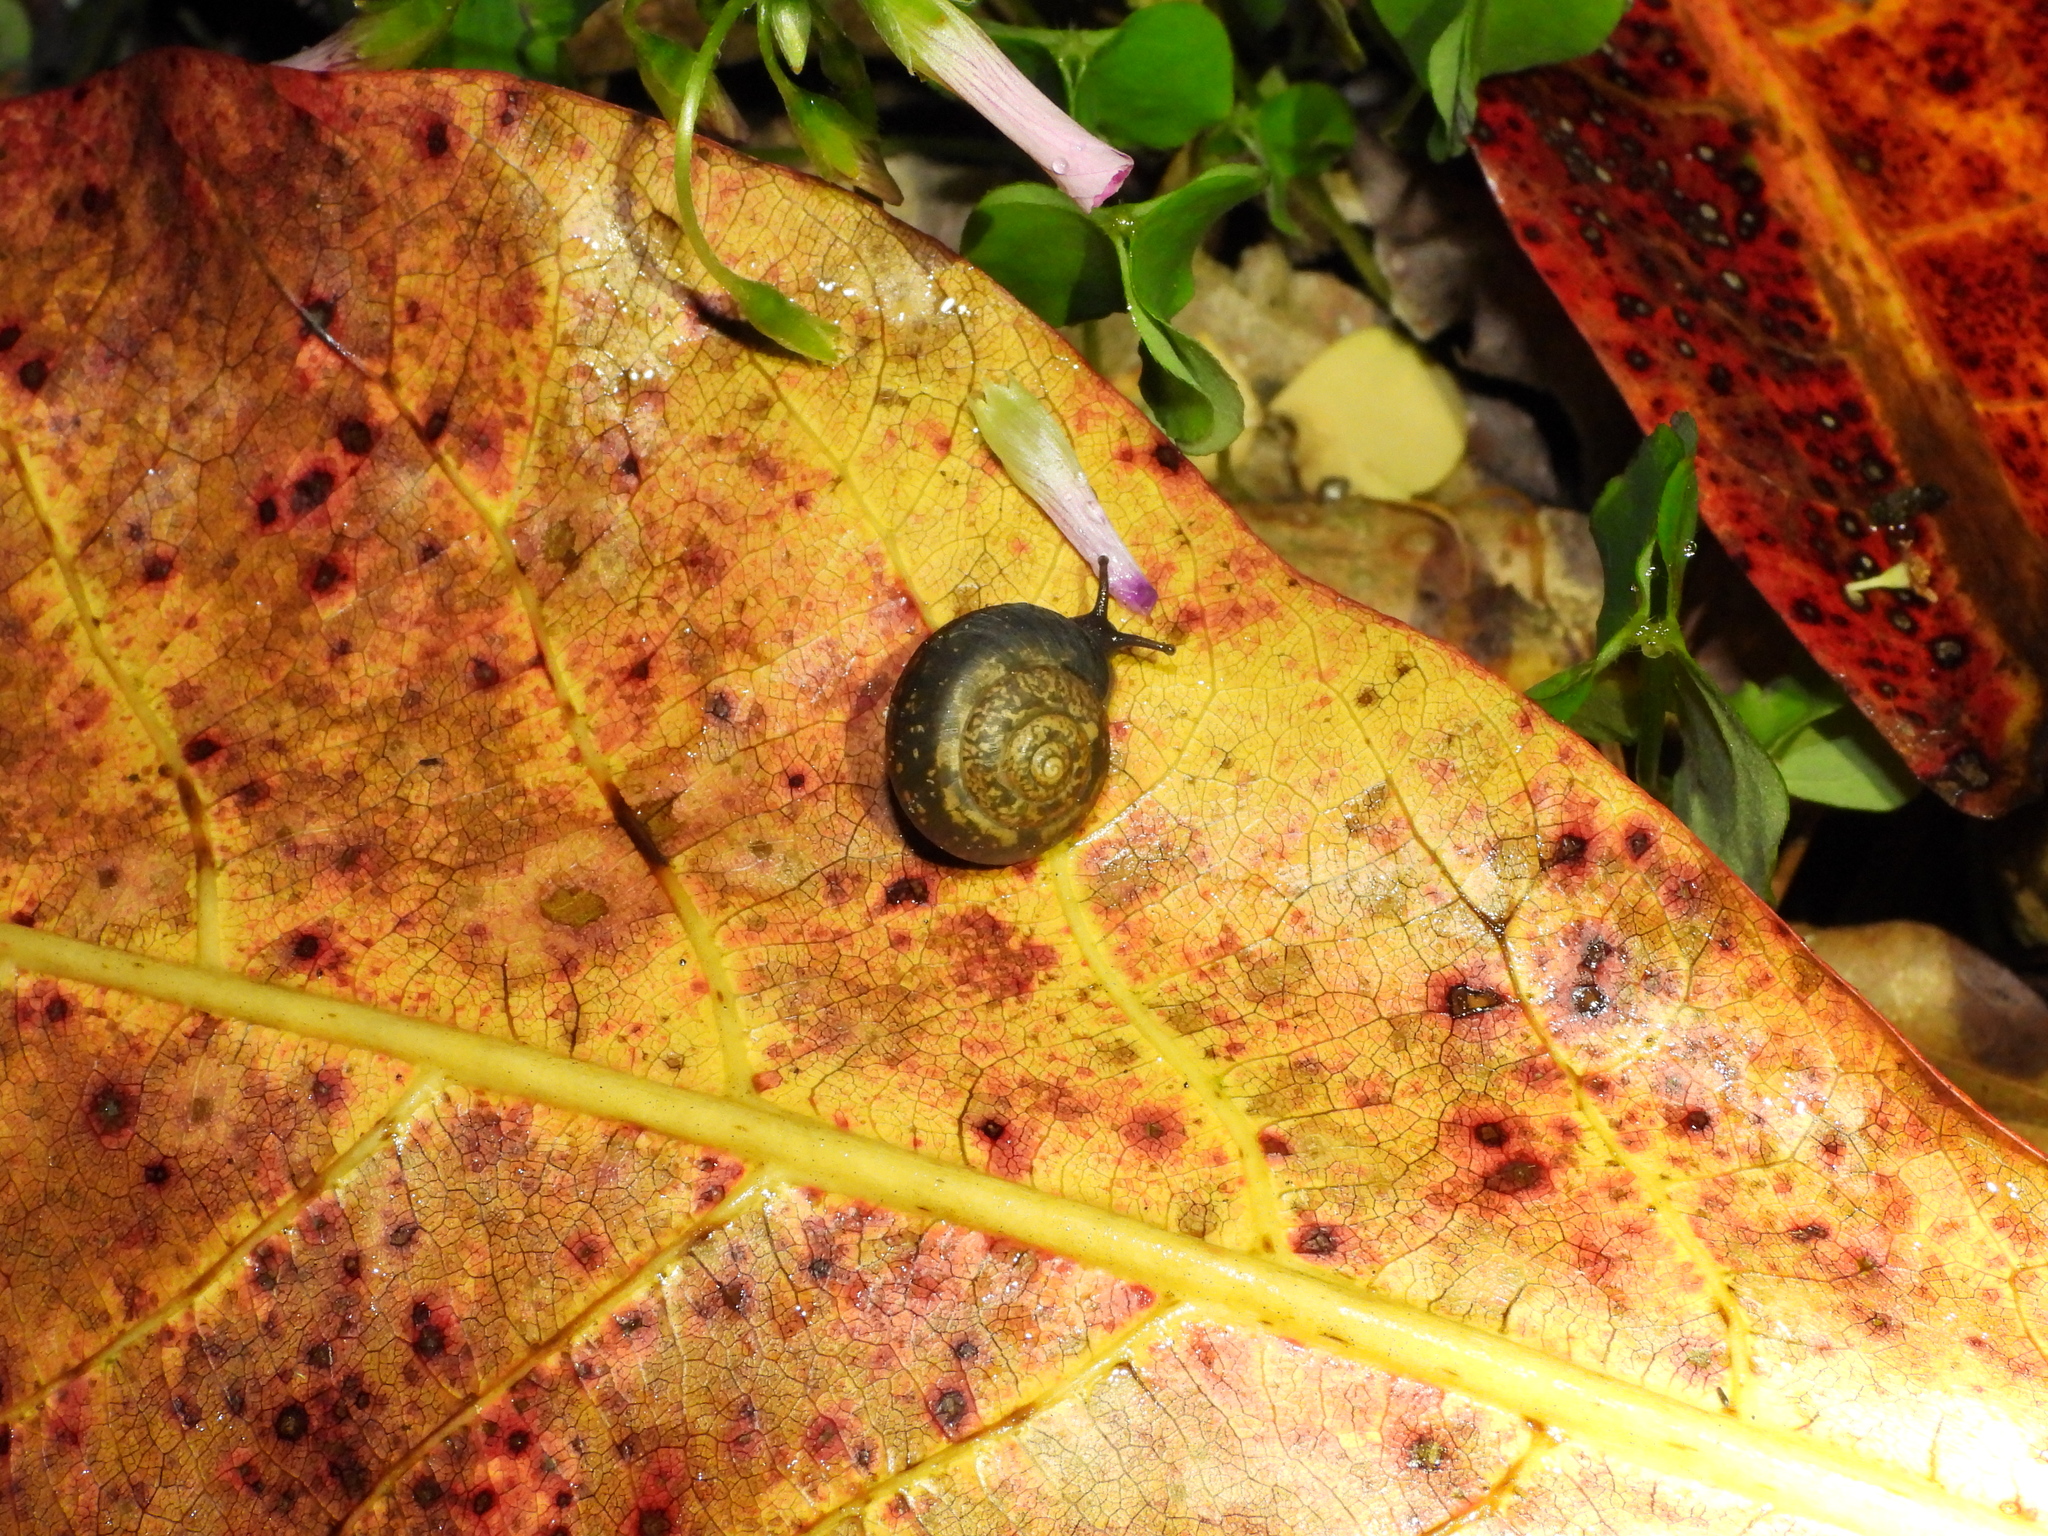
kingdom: Animalia
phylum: Mollusca
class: Gastropoda
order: Stylommatophora
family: Camaenidae
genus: Bradybaena
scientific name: Bradybaena similaris
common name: Asian trampsnail
